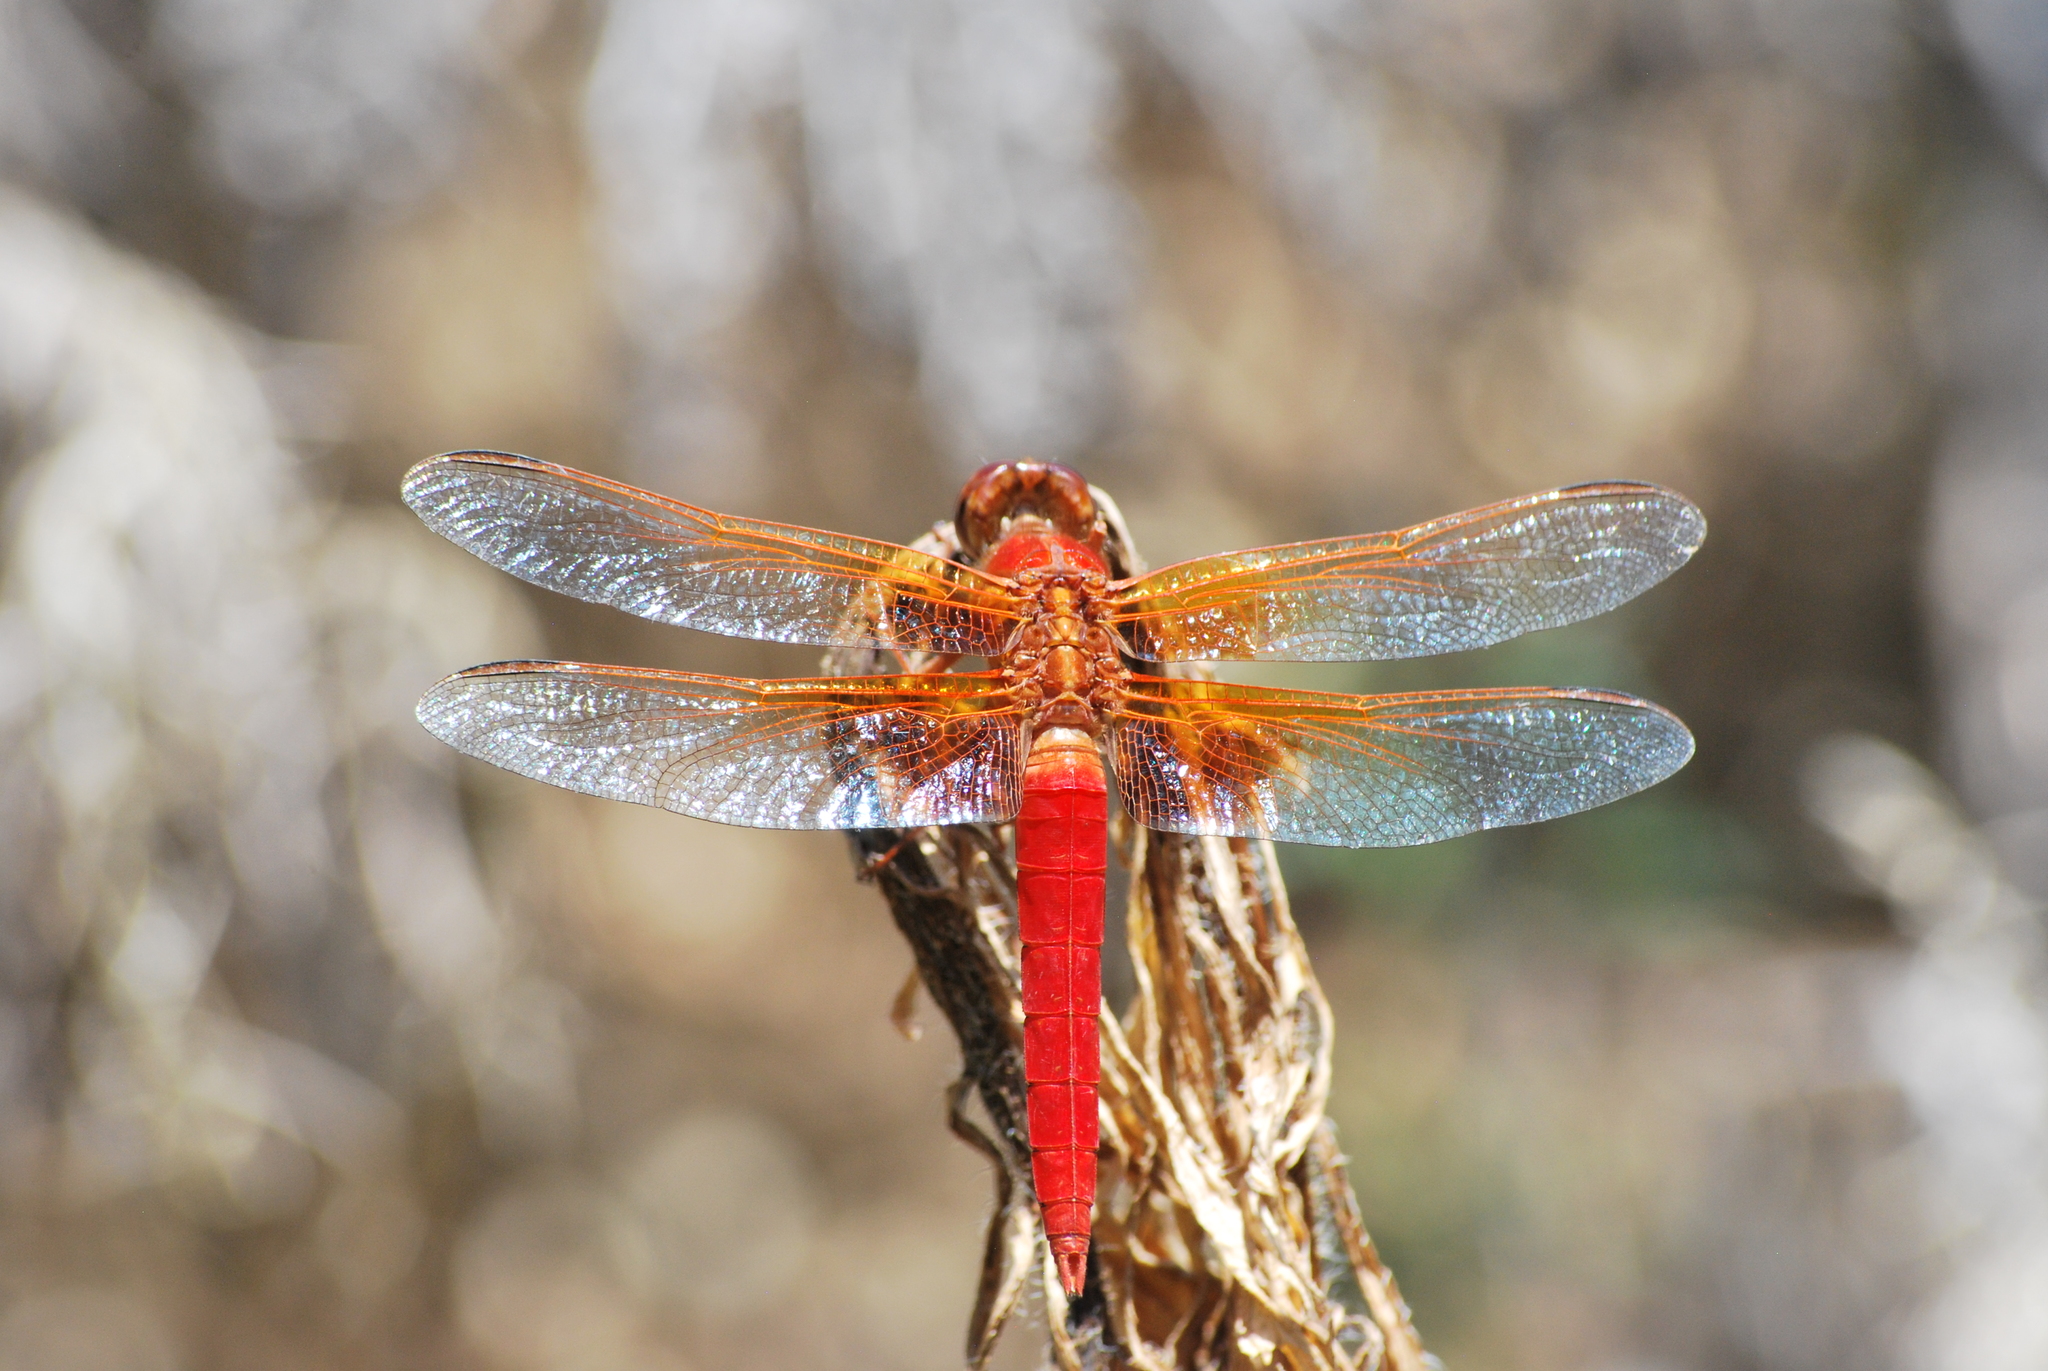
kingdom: Animalia
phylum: Arthropoda
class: Insecta
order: Odonata
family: Libellulidae
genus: Libellula
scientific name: Libellula croceipennis
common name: Neon skimmer
